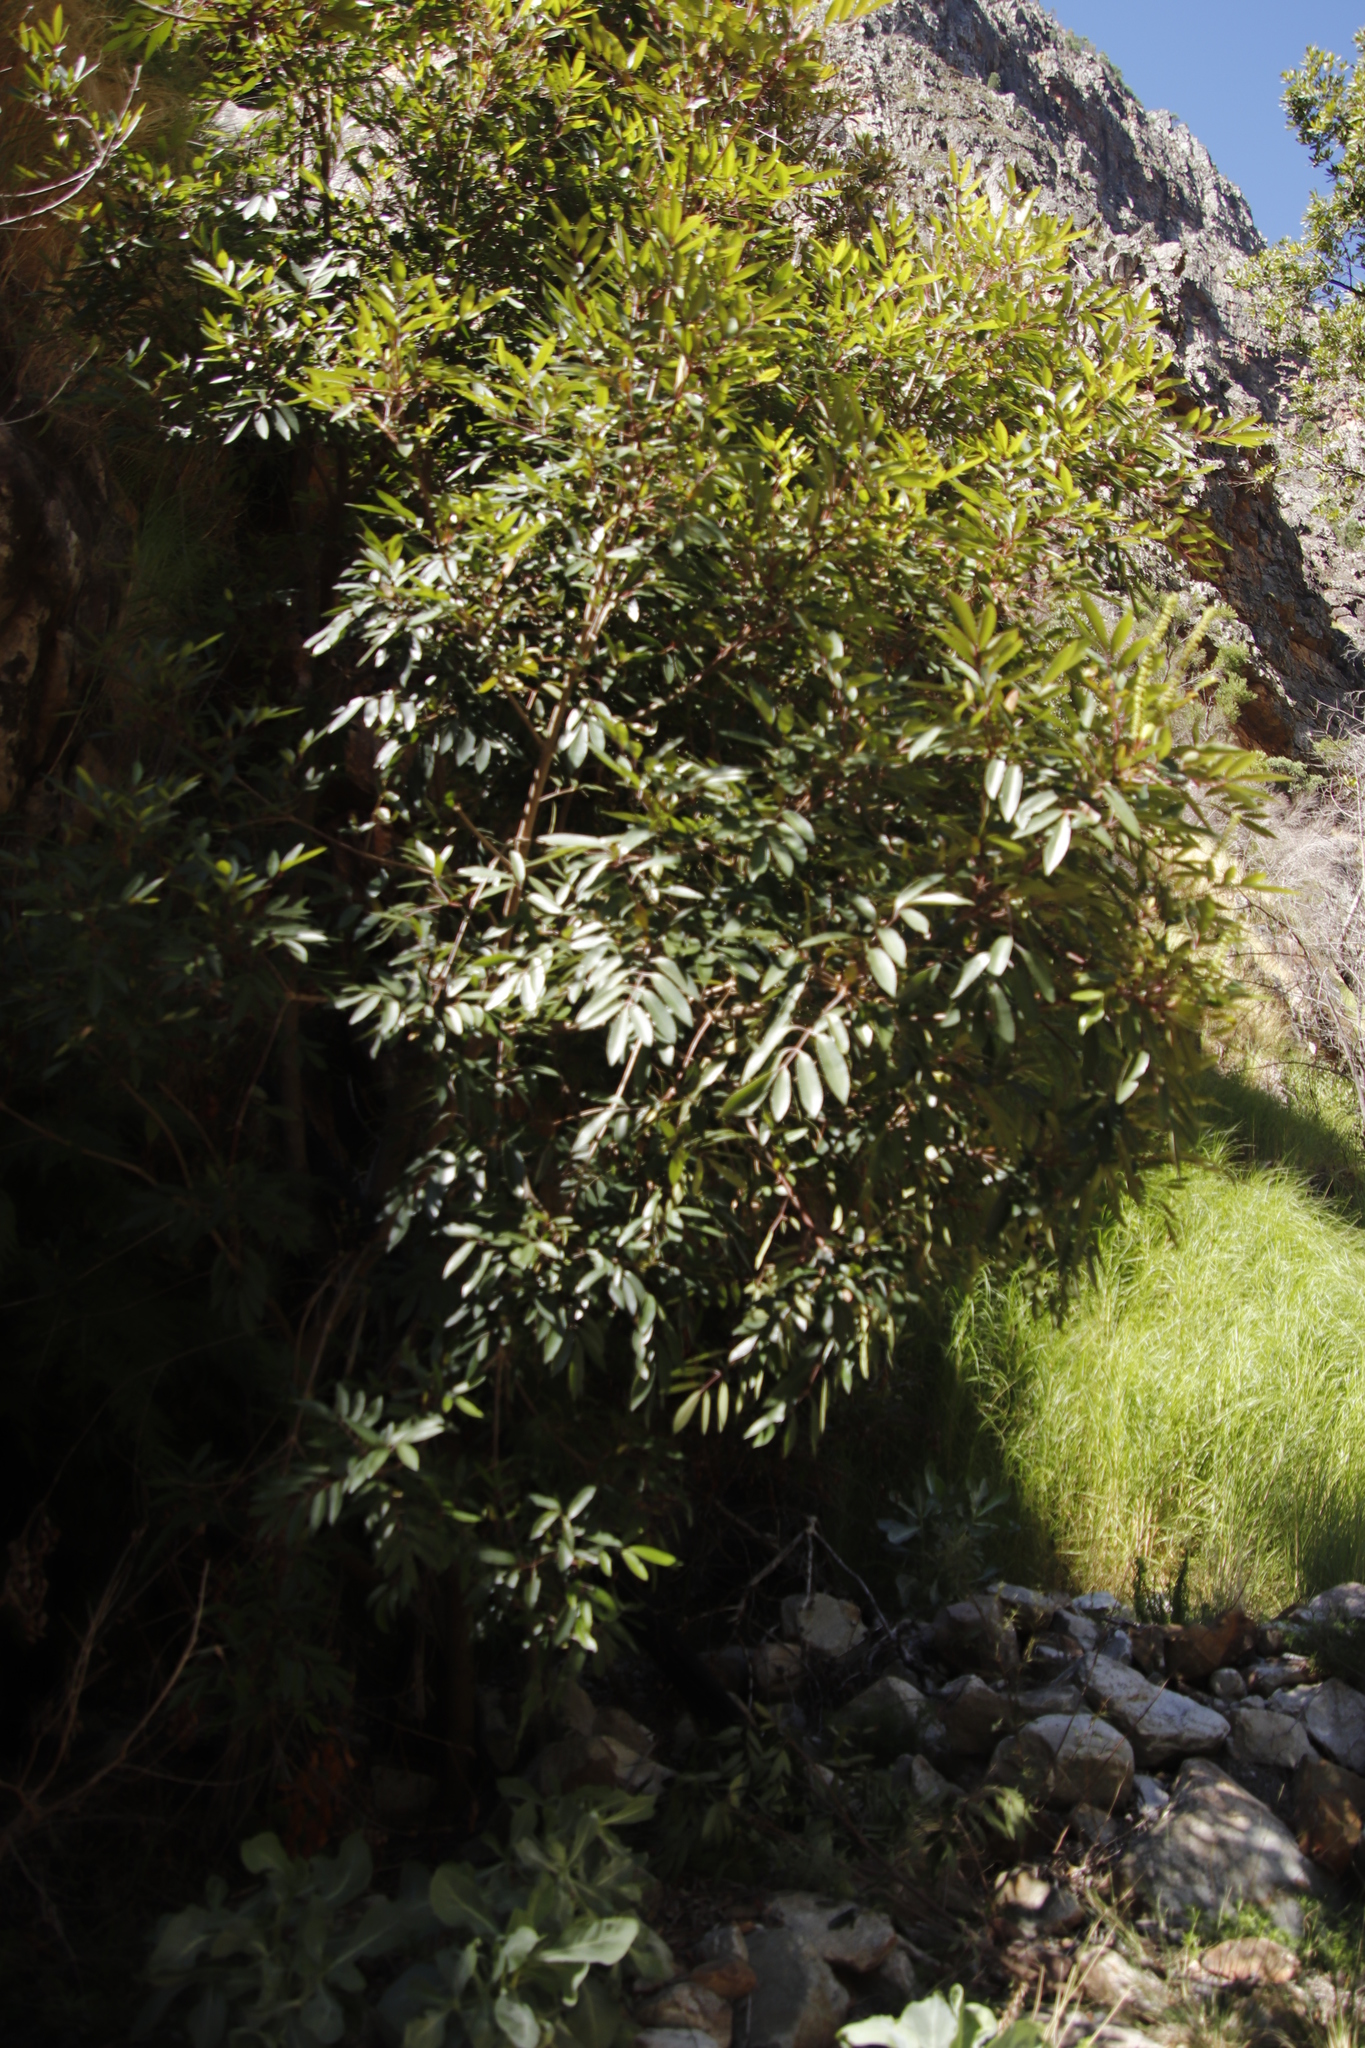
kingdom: Plantae
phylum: Tracheophyta
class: Magnoliopsida
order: Oxalidales
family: Cunoniaceae
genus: Cunonia
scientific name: Cunonia capensis
